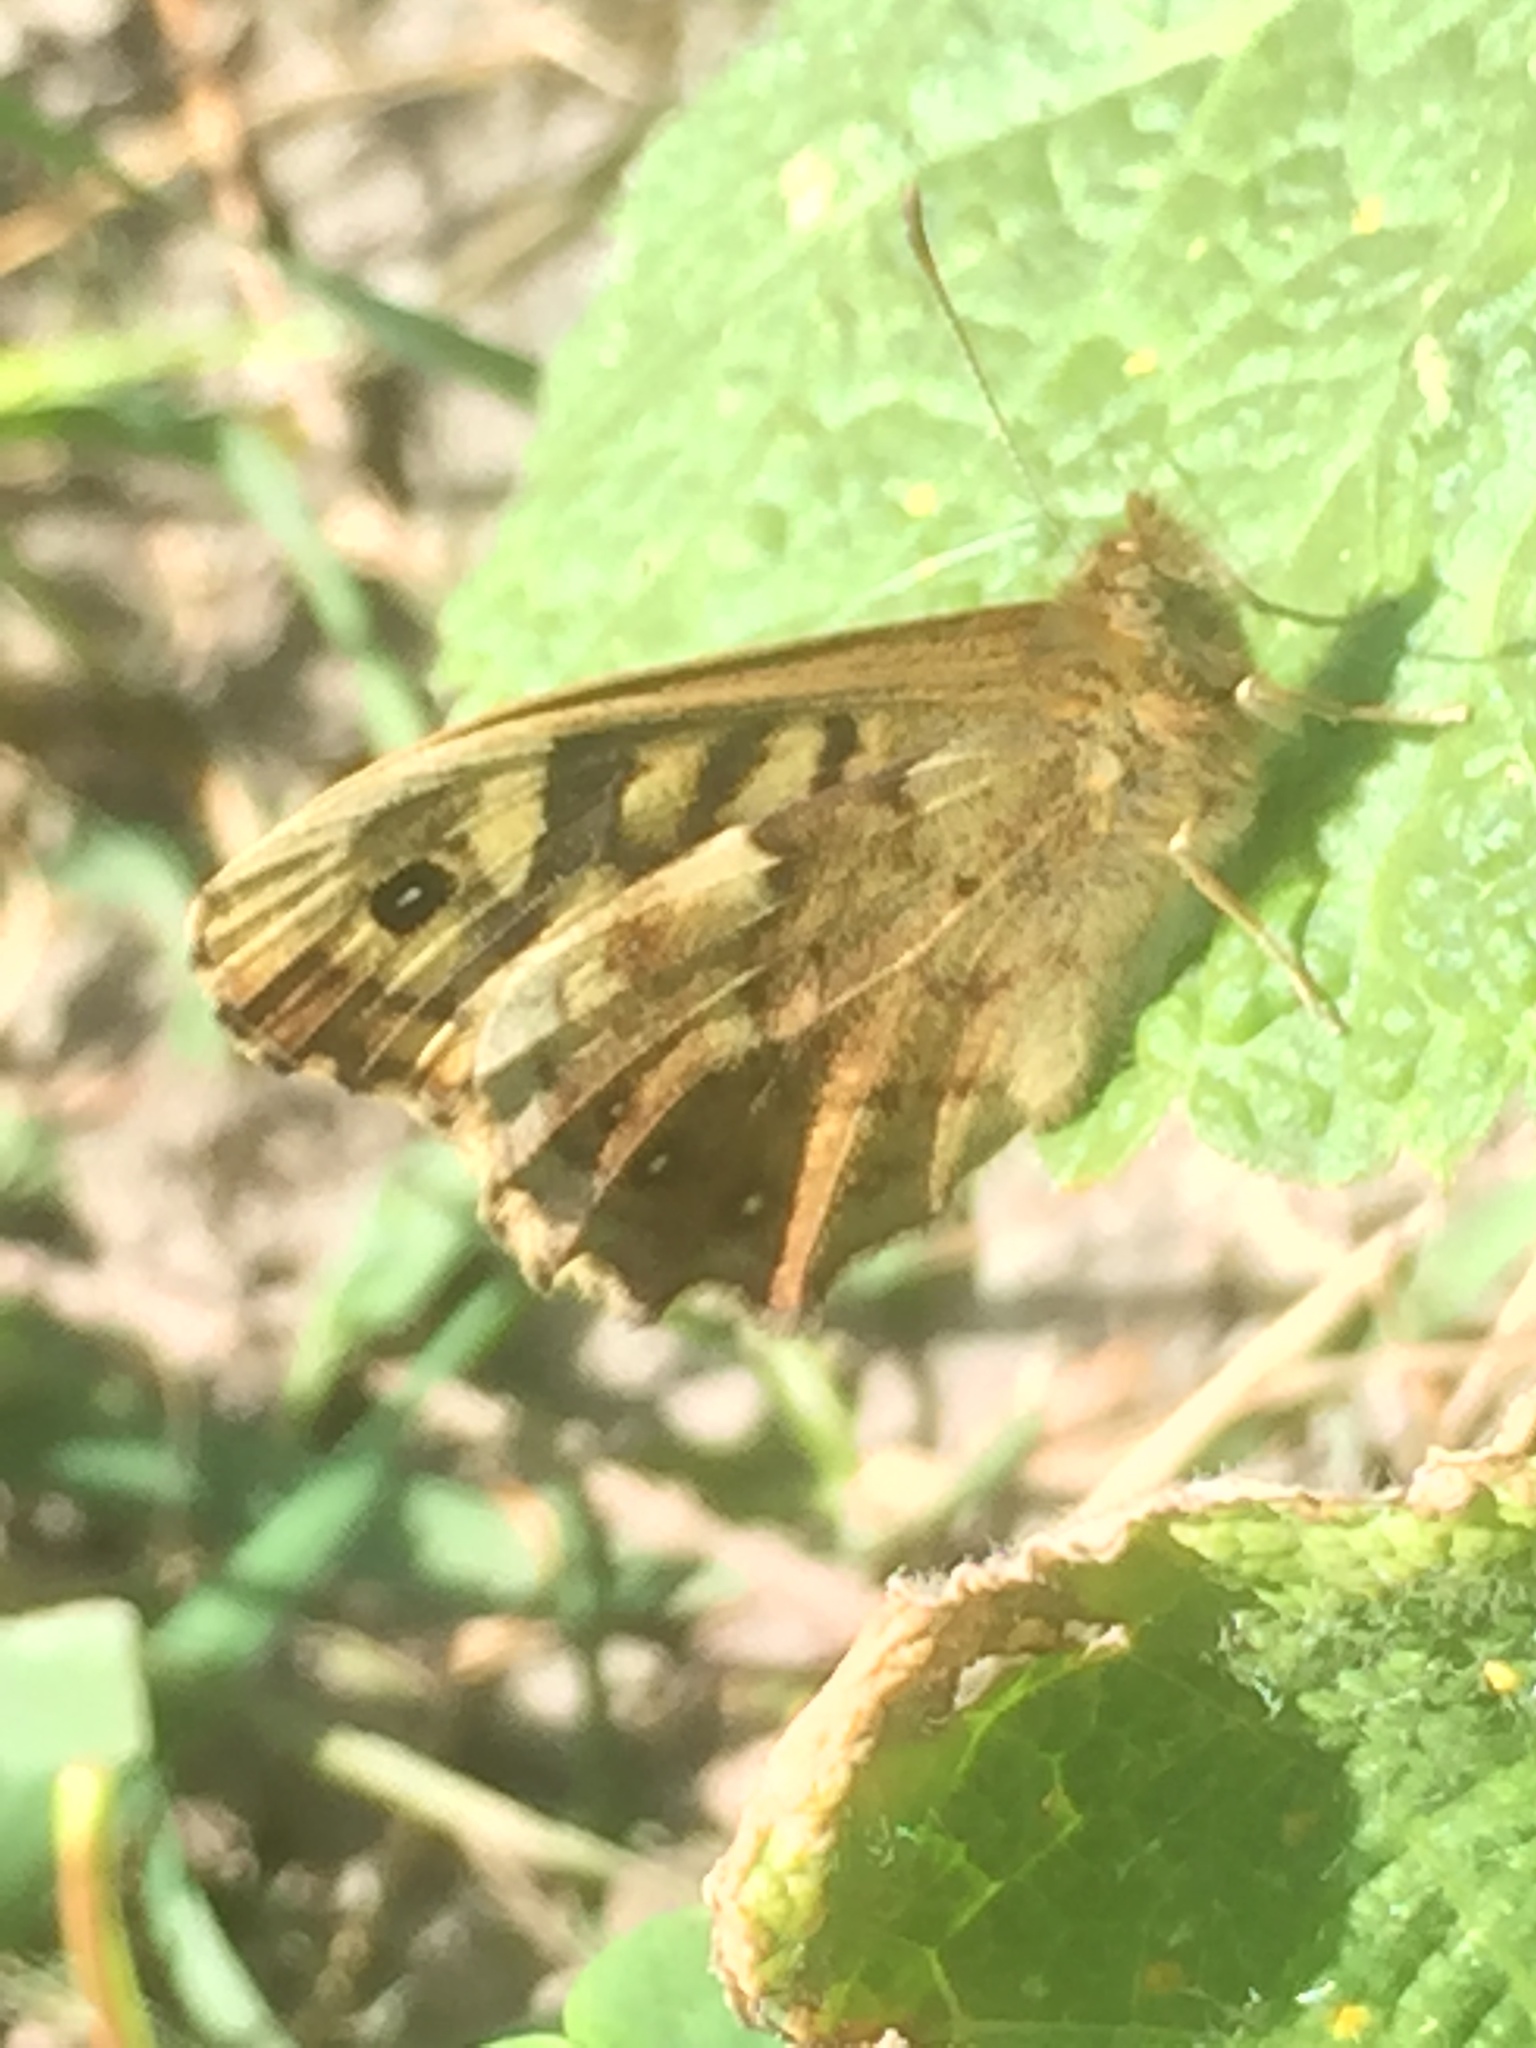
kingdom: Animalia
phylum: Arthropoda
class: Insecta
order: Lepidoptera
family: Nymphalidae
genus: Pararge
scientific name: Pararge aegeria
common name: Speckled wood
